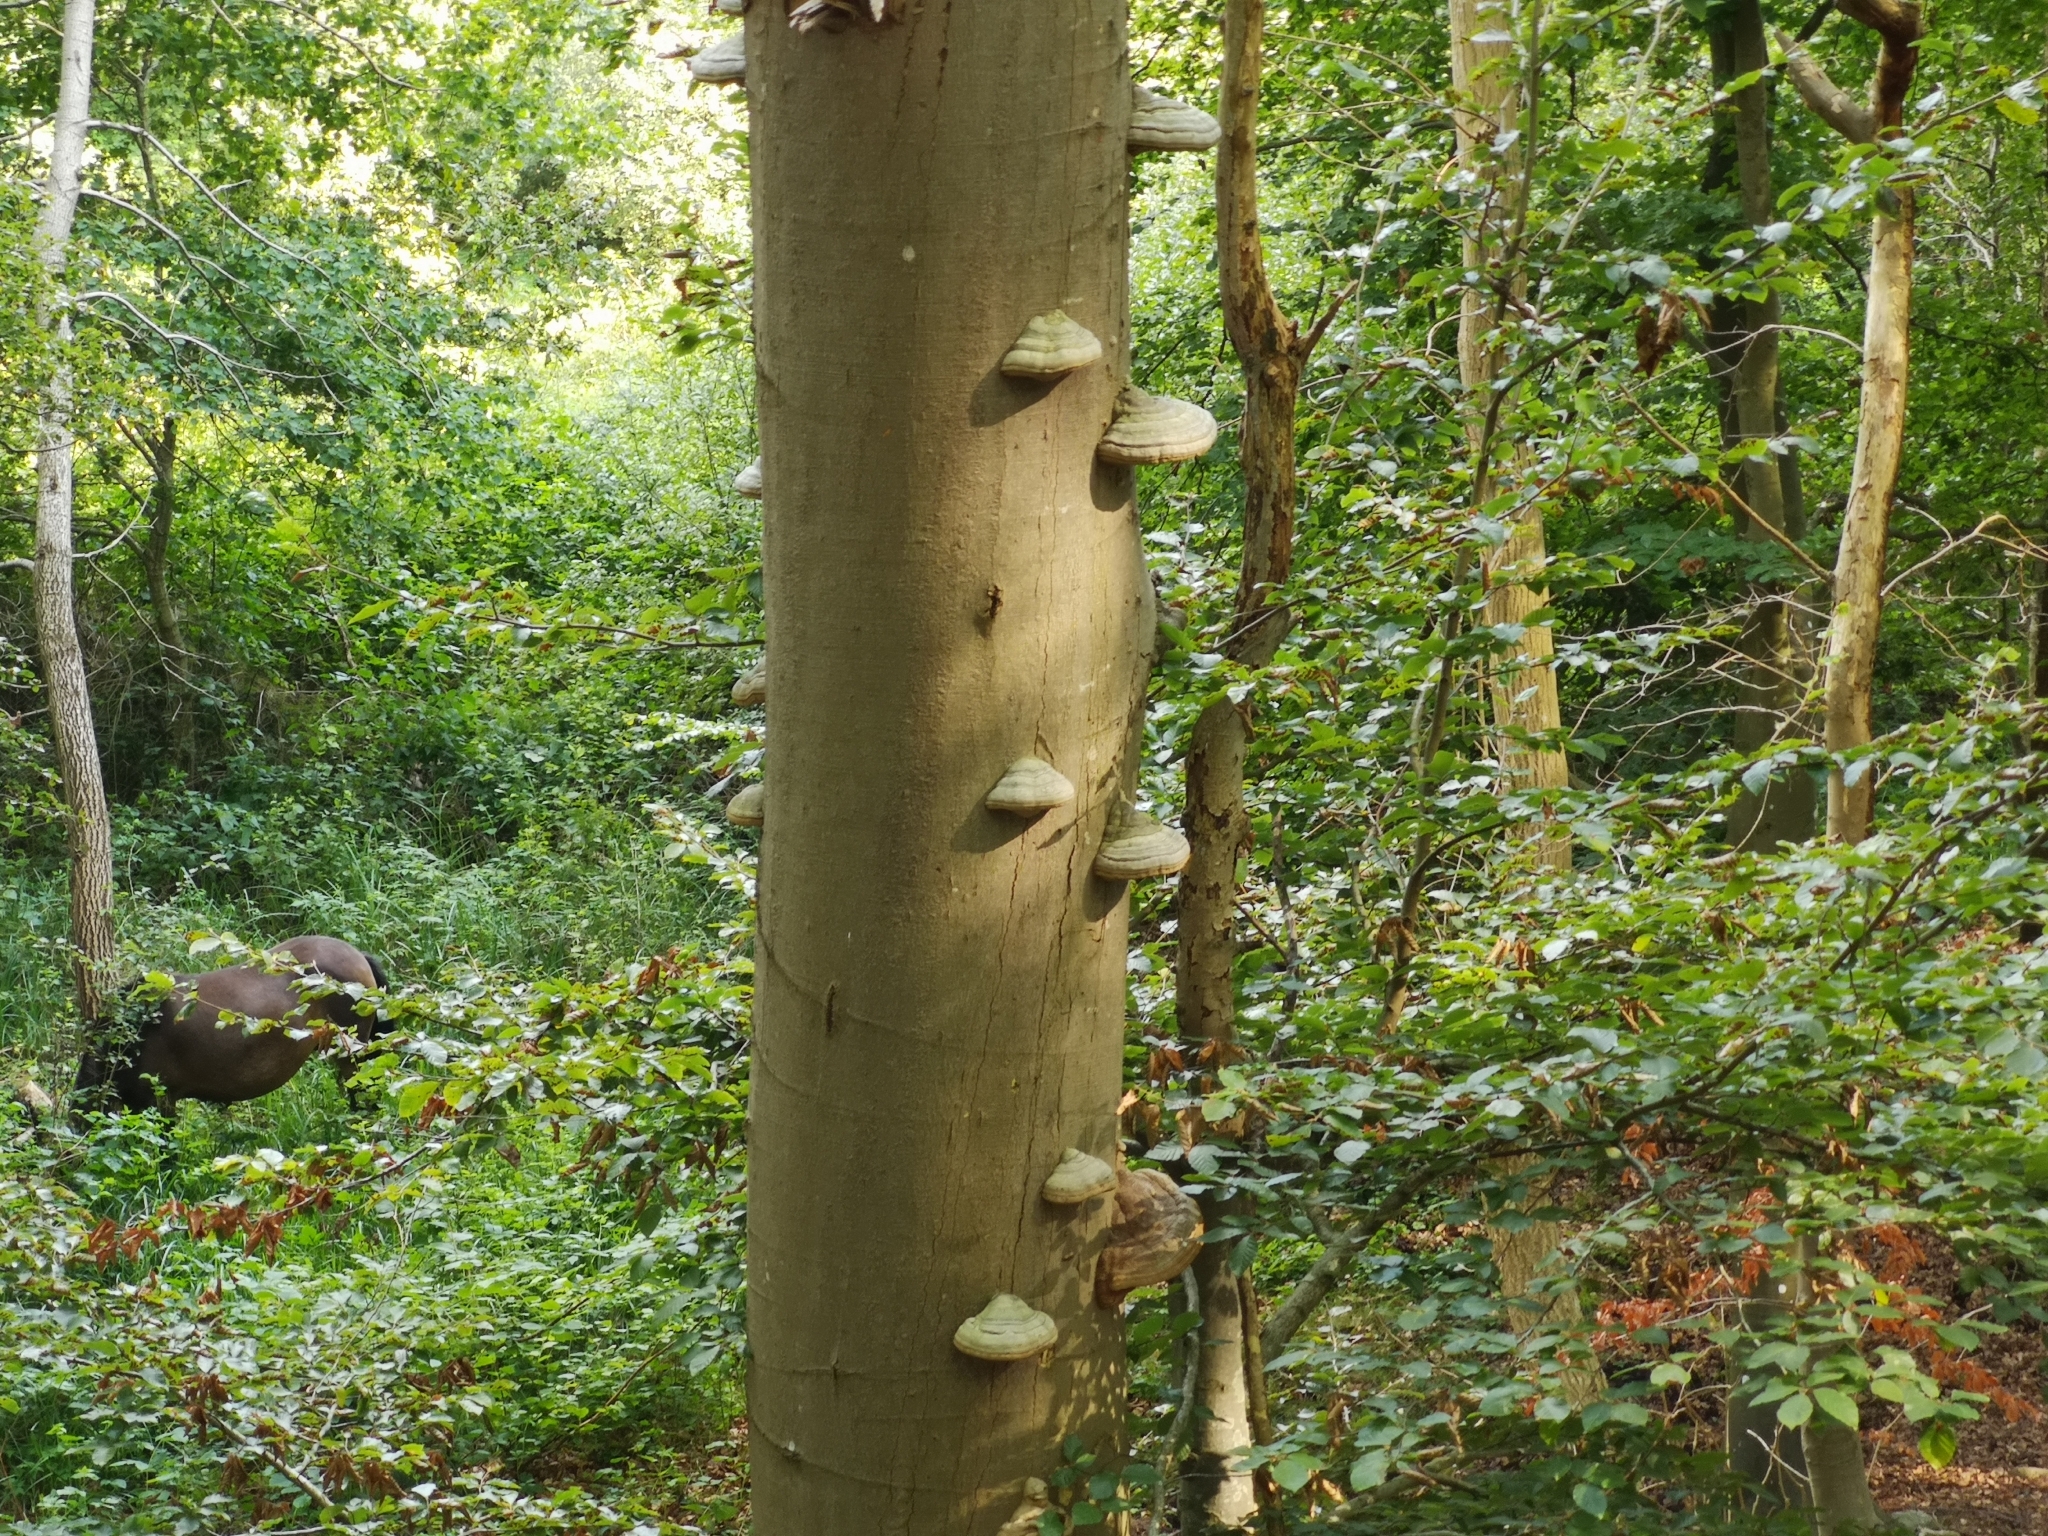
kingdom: Fungi
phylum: Basidiomycota
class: Agaricomycetes
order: Polyporales
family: Polyporaceae
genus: Fomes
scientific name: Fomes fomentarius
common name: Hoof fungus
